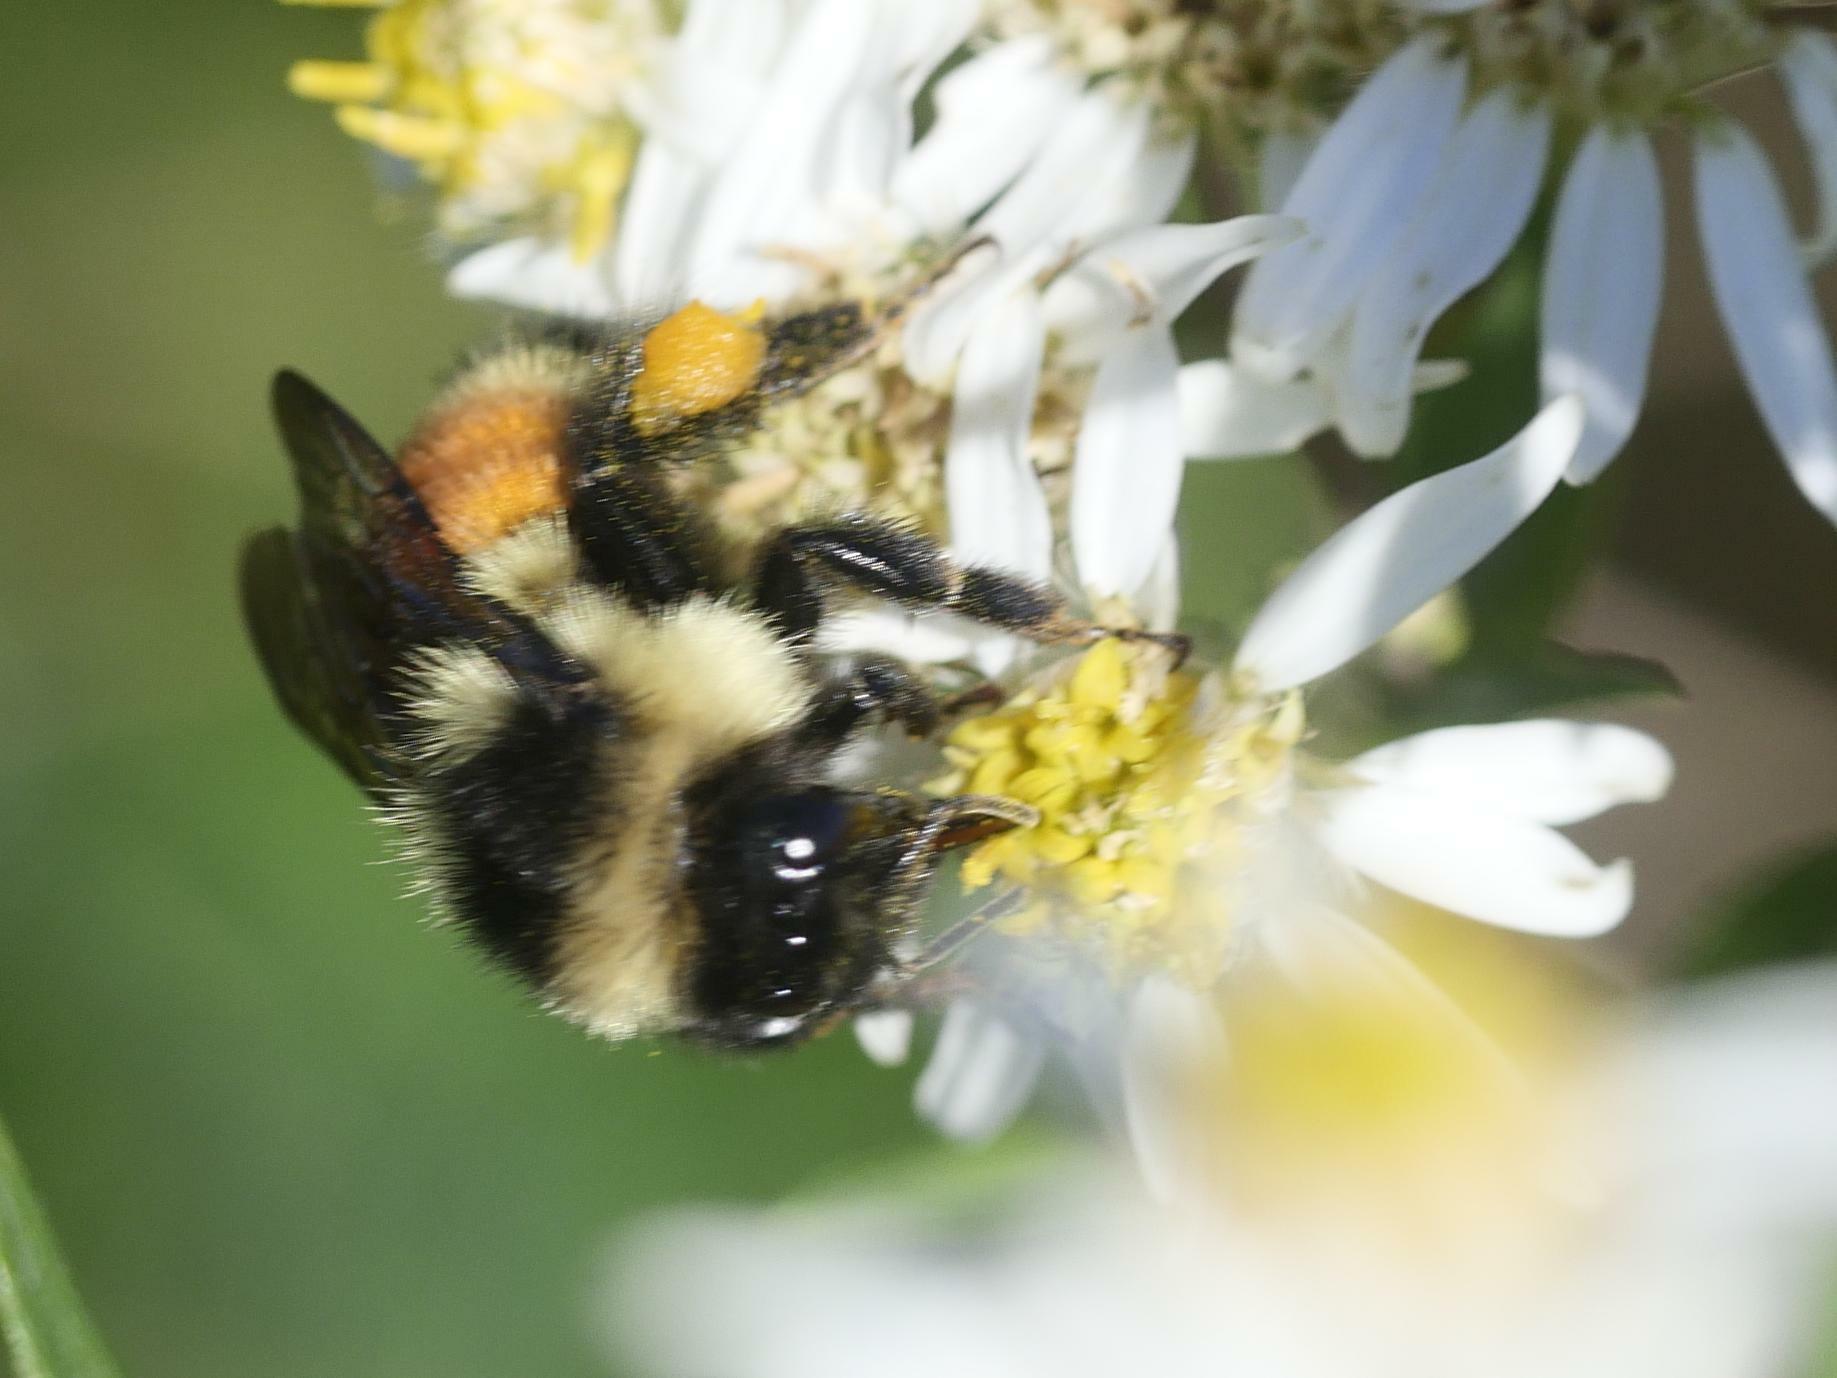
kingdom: Animalia
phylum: Arthropoda
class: Insecta
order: Hymenoptera
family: Apidae
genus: Bombus
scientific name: Bombus ternarius
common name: Tri-colored bumble bee
